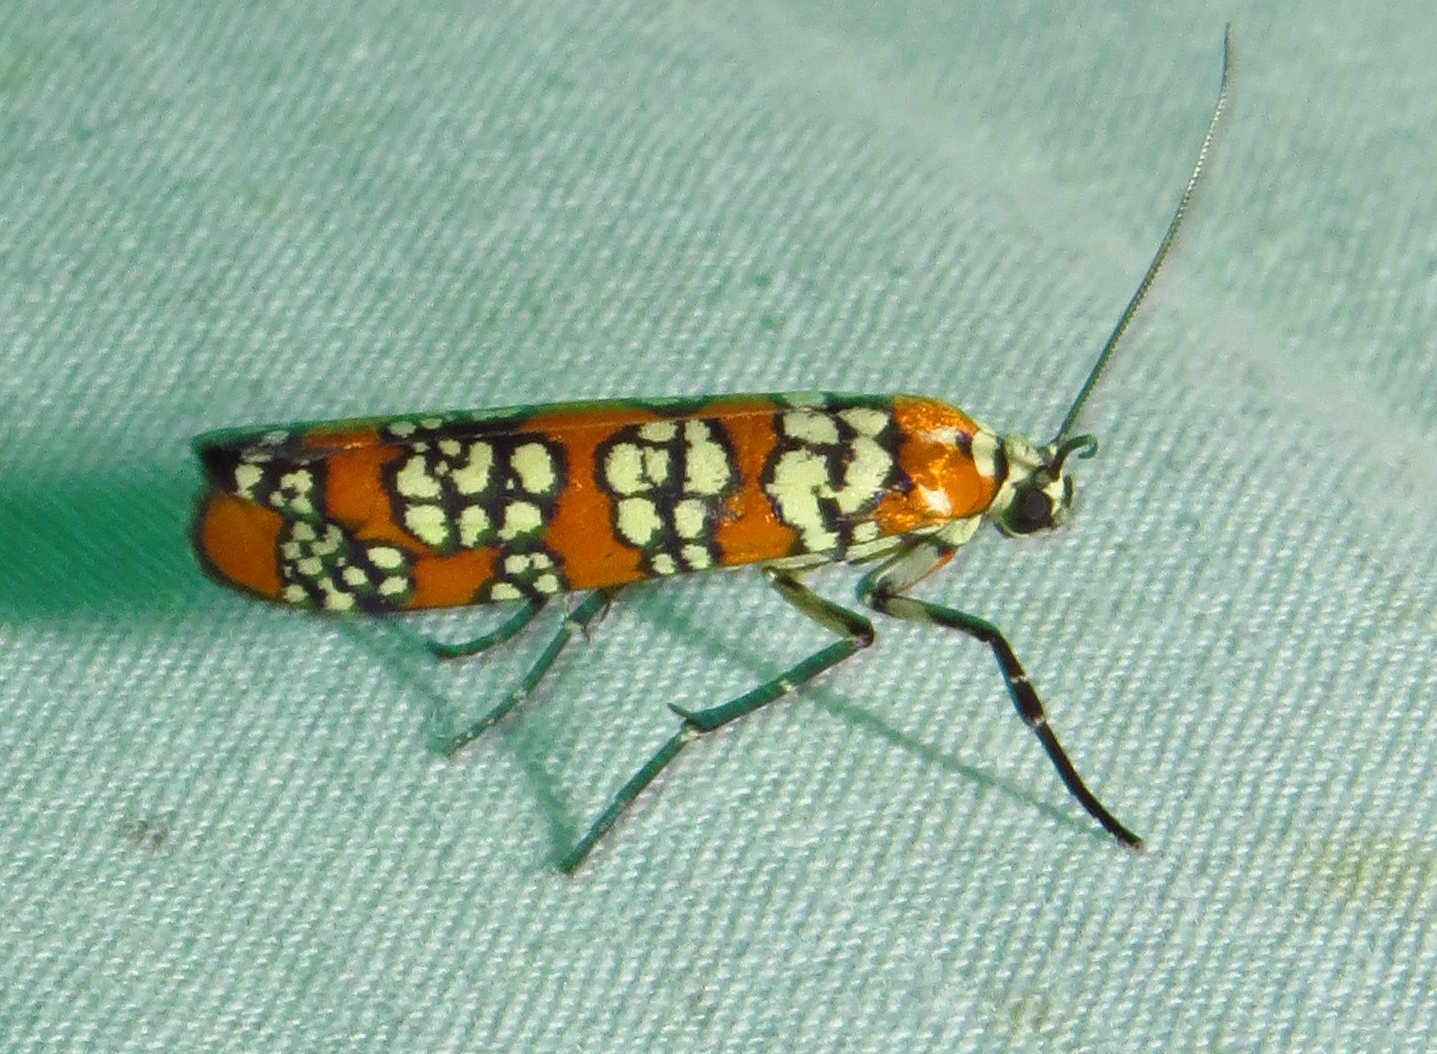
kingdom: Animalia
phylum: Arthropoda
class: Insecta
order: Lepidoptera
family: Attevidae
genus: Atteva
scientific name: Atteva punctella
